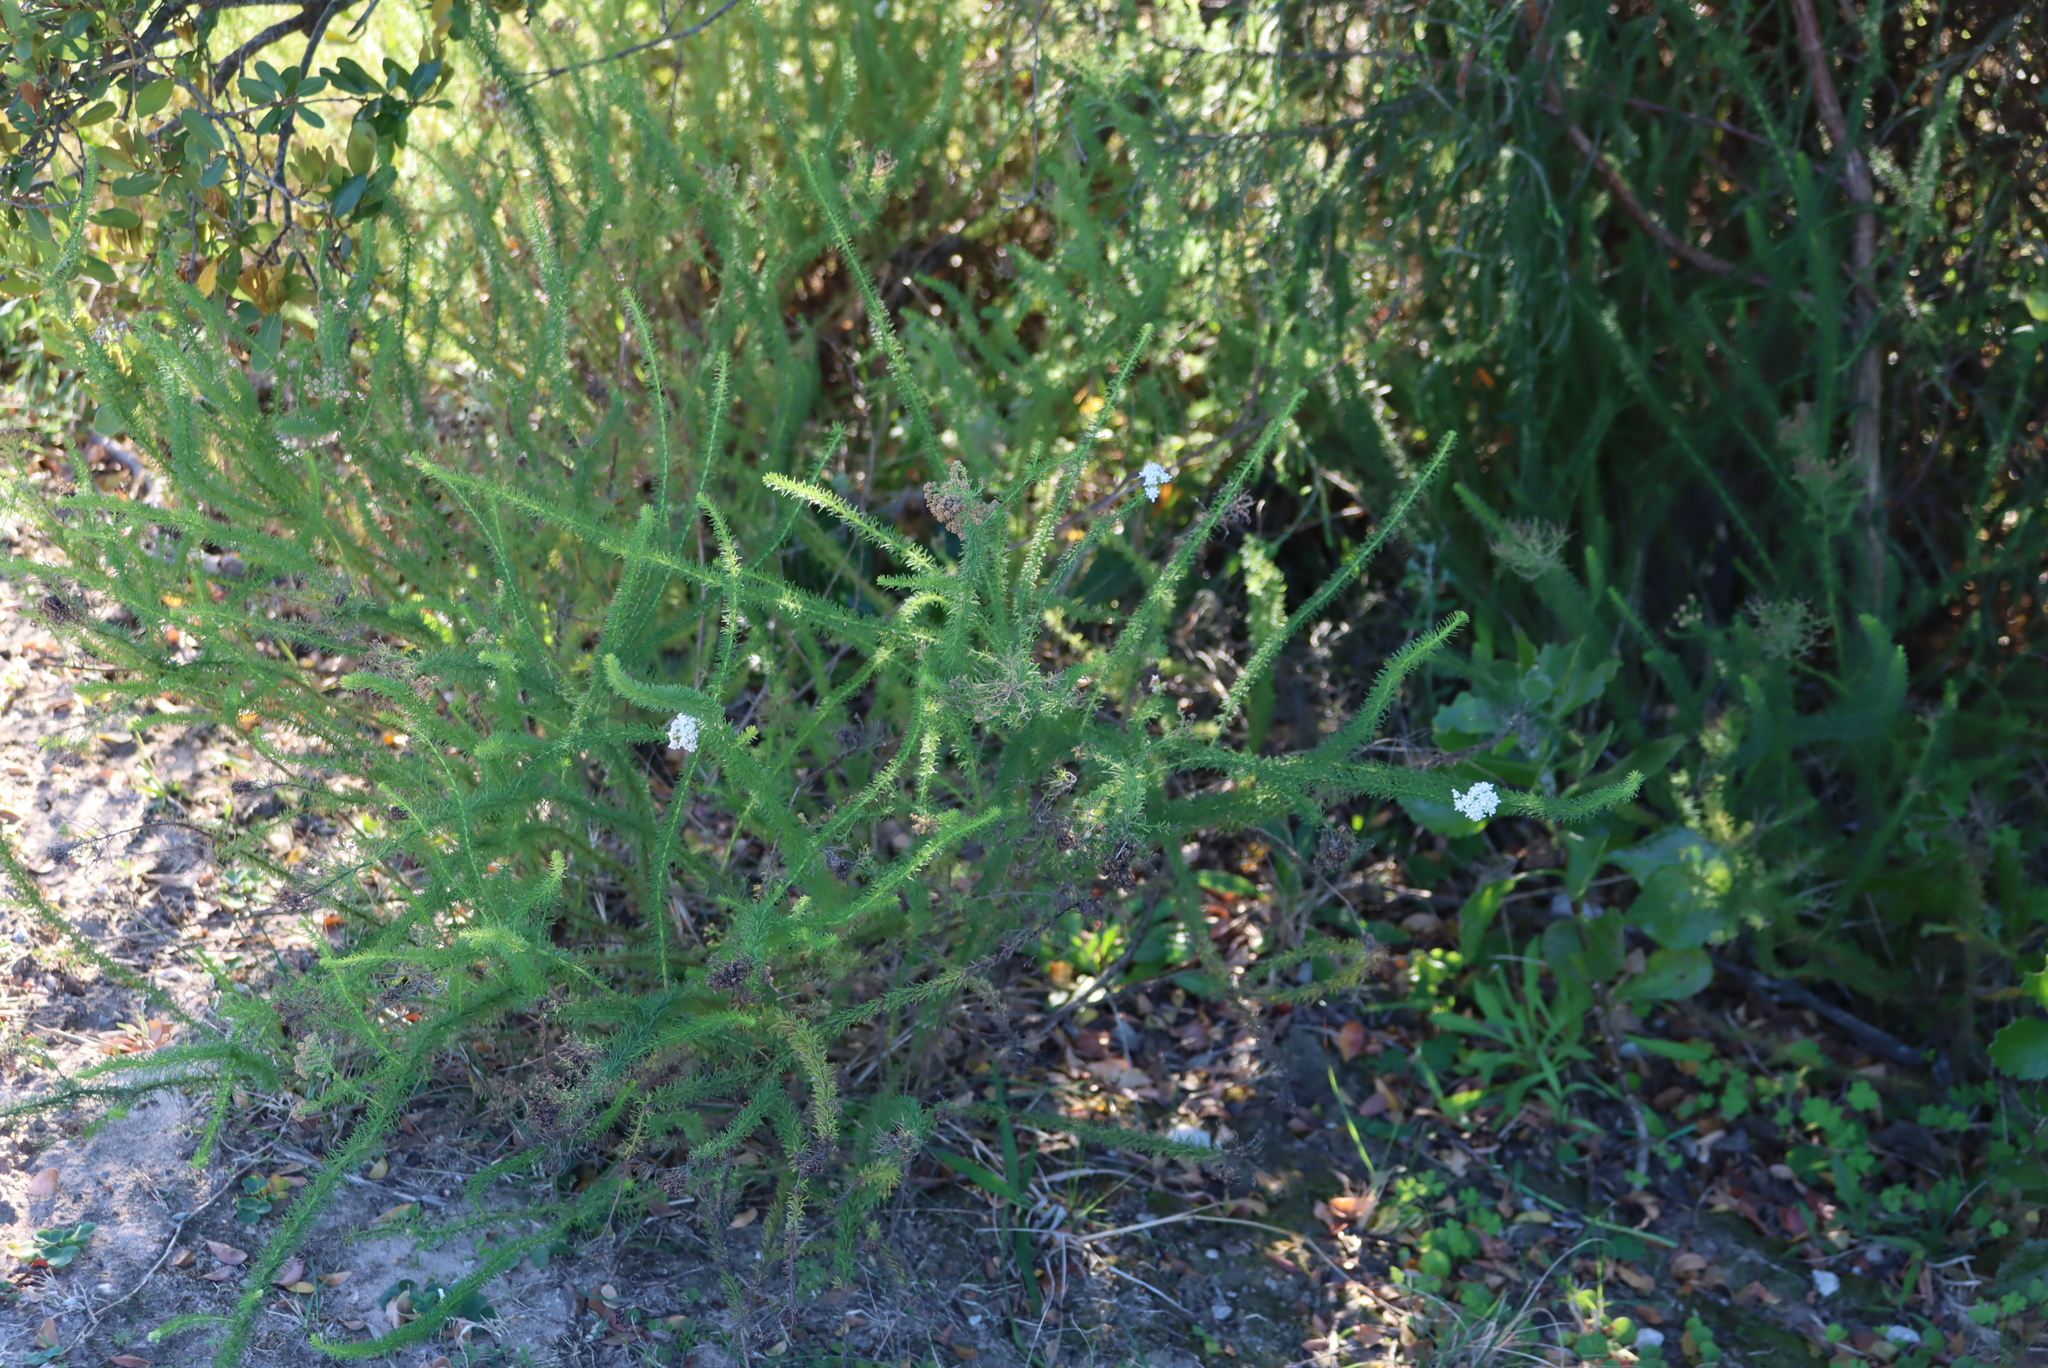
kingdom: Plantae
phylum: Tracheophyta
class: Magnoliopsida
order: Lamiales
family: Scrophulariaceae
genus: Selago
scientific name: Selago corymbosa
